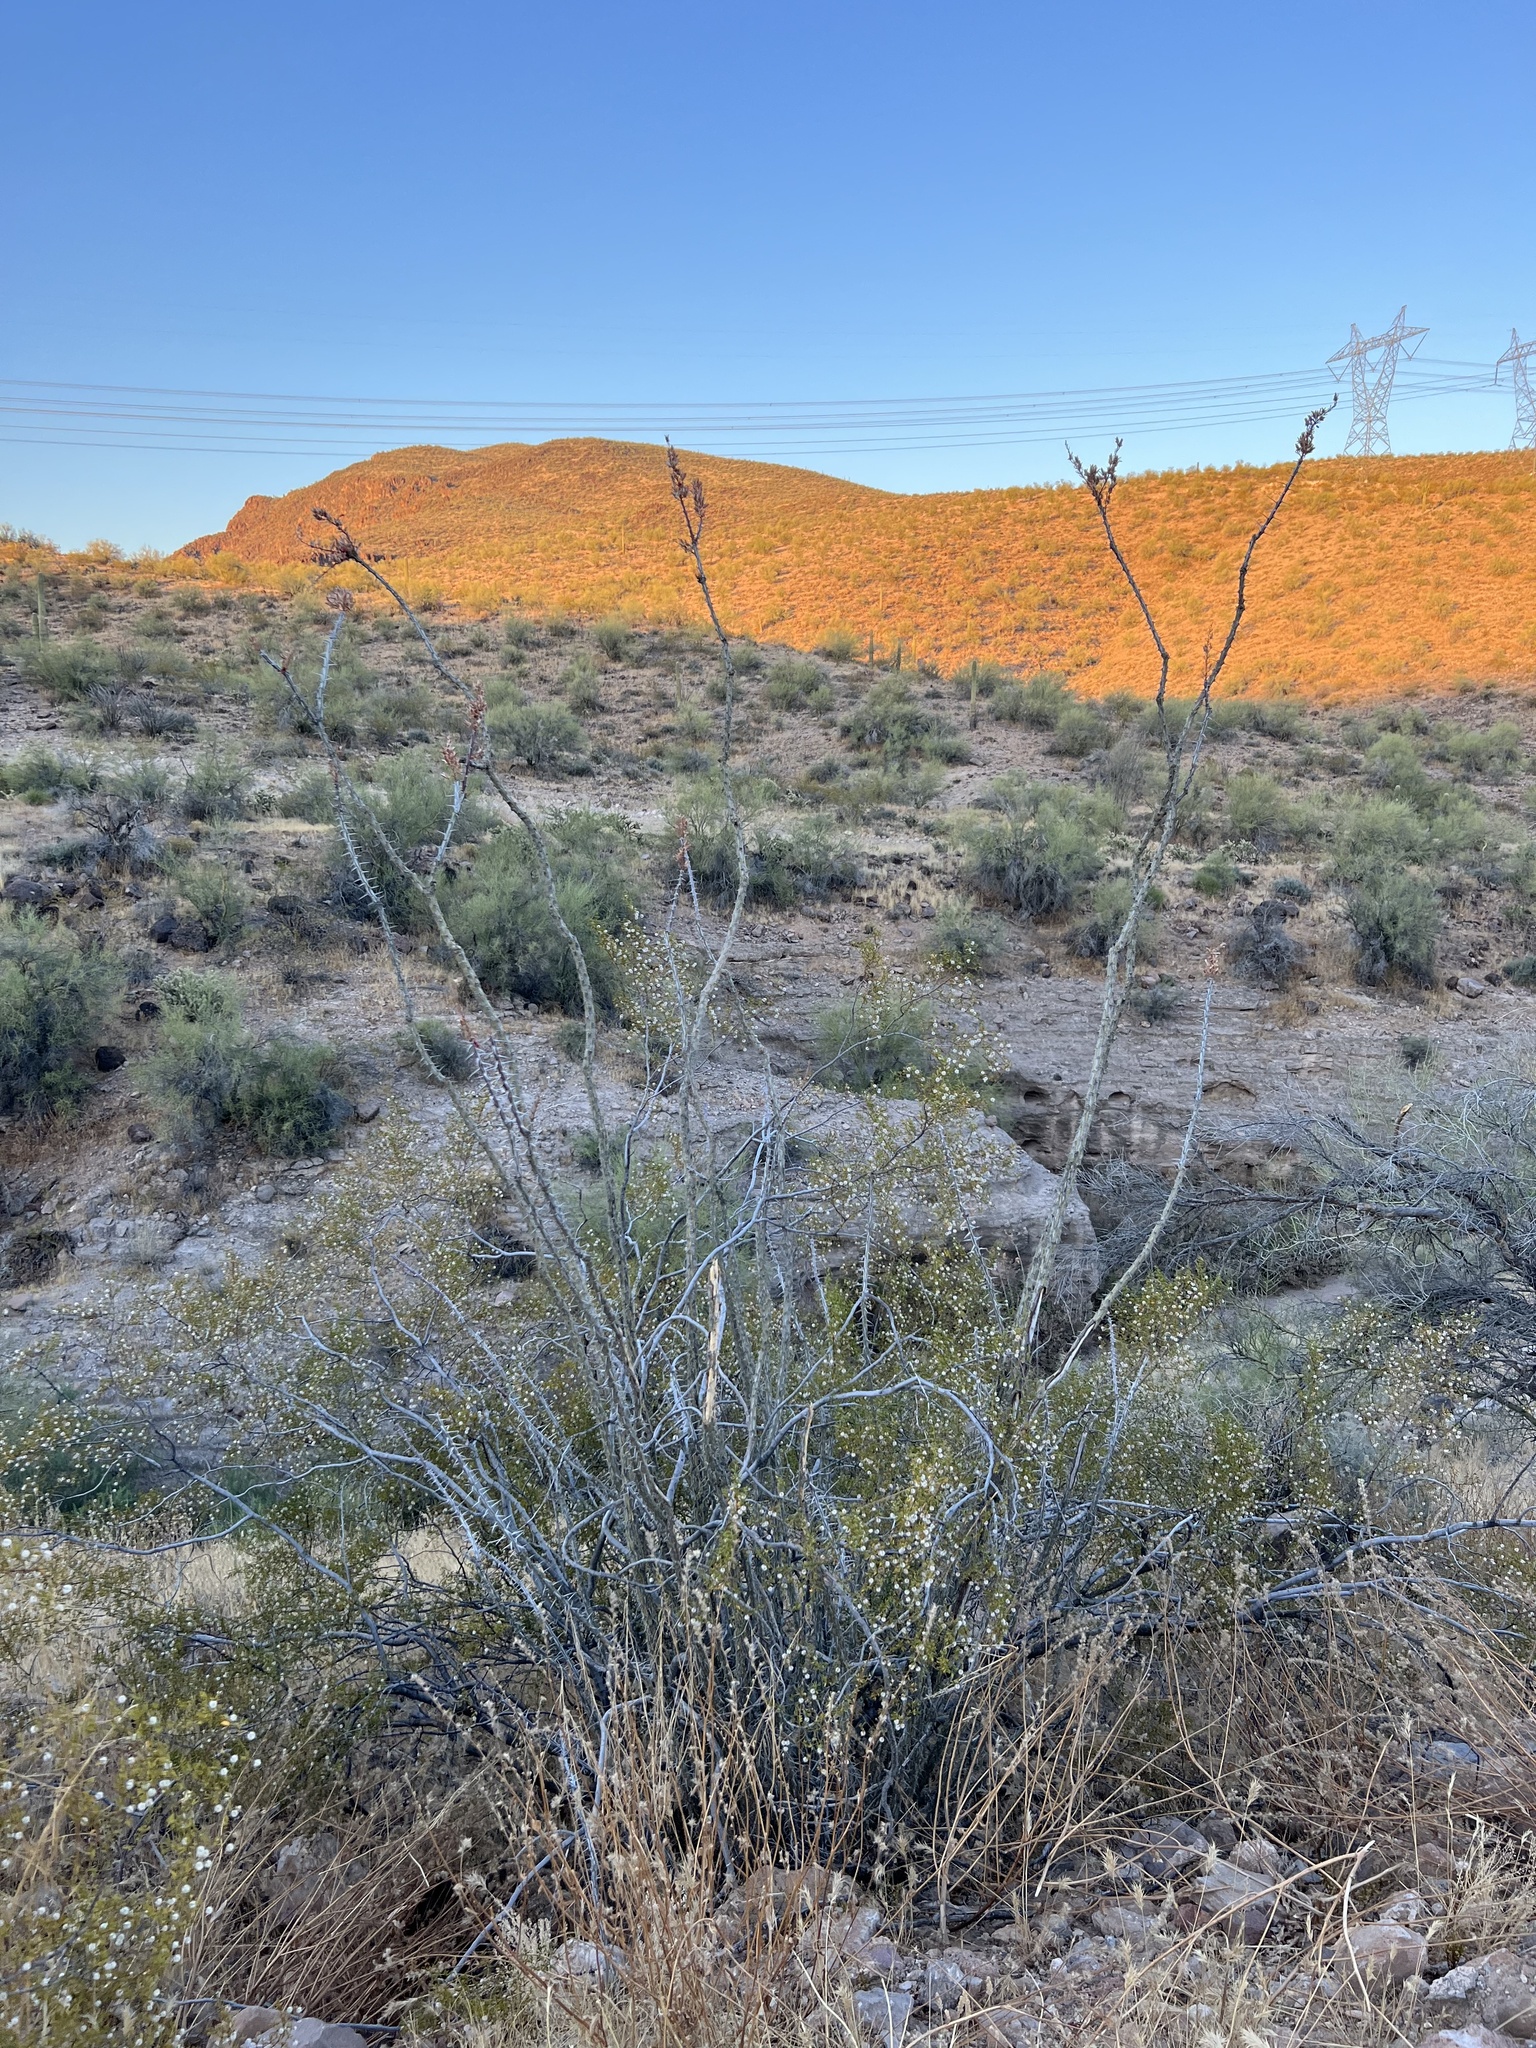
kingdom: Plantae
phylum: Tracheophyta
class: Magnoliopsida
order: Ericales
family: Fouquieriaceae
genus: Fouquieria
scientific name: Fouquieria splendens
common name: Vine-cactus
